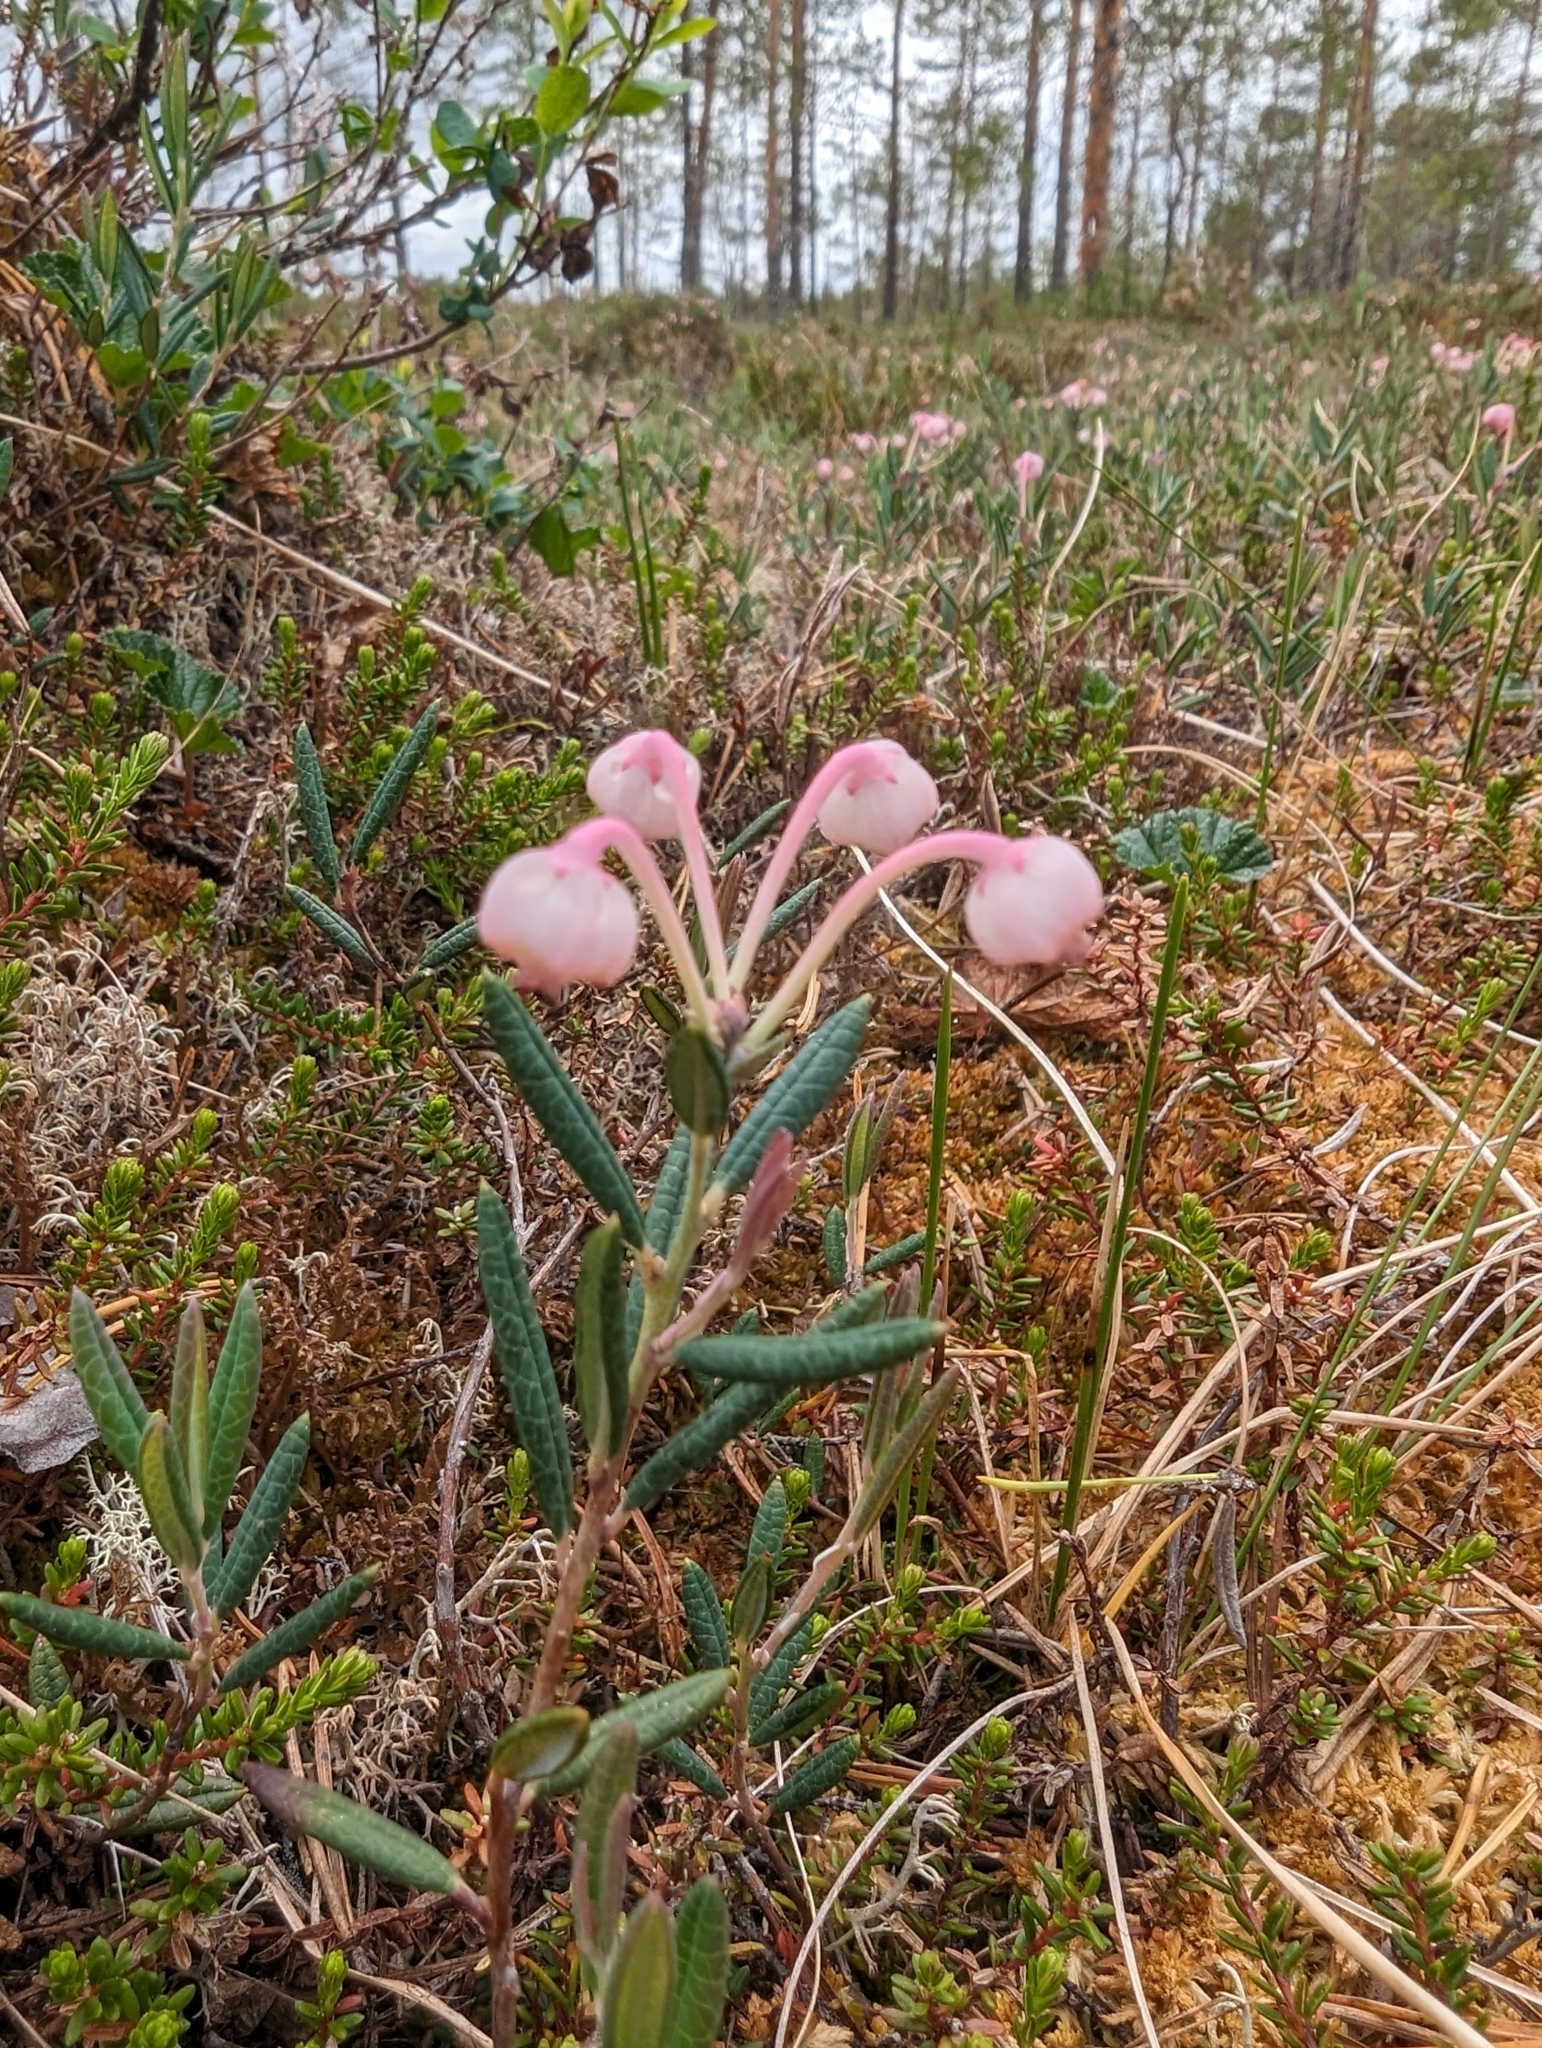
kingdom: Plantae
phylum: Tracheophyta
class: Magnoliopsida
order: Ericales
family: Ericaceae
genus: Andromeda
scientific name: Andromeda polifolia
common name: Bog-rosemary
